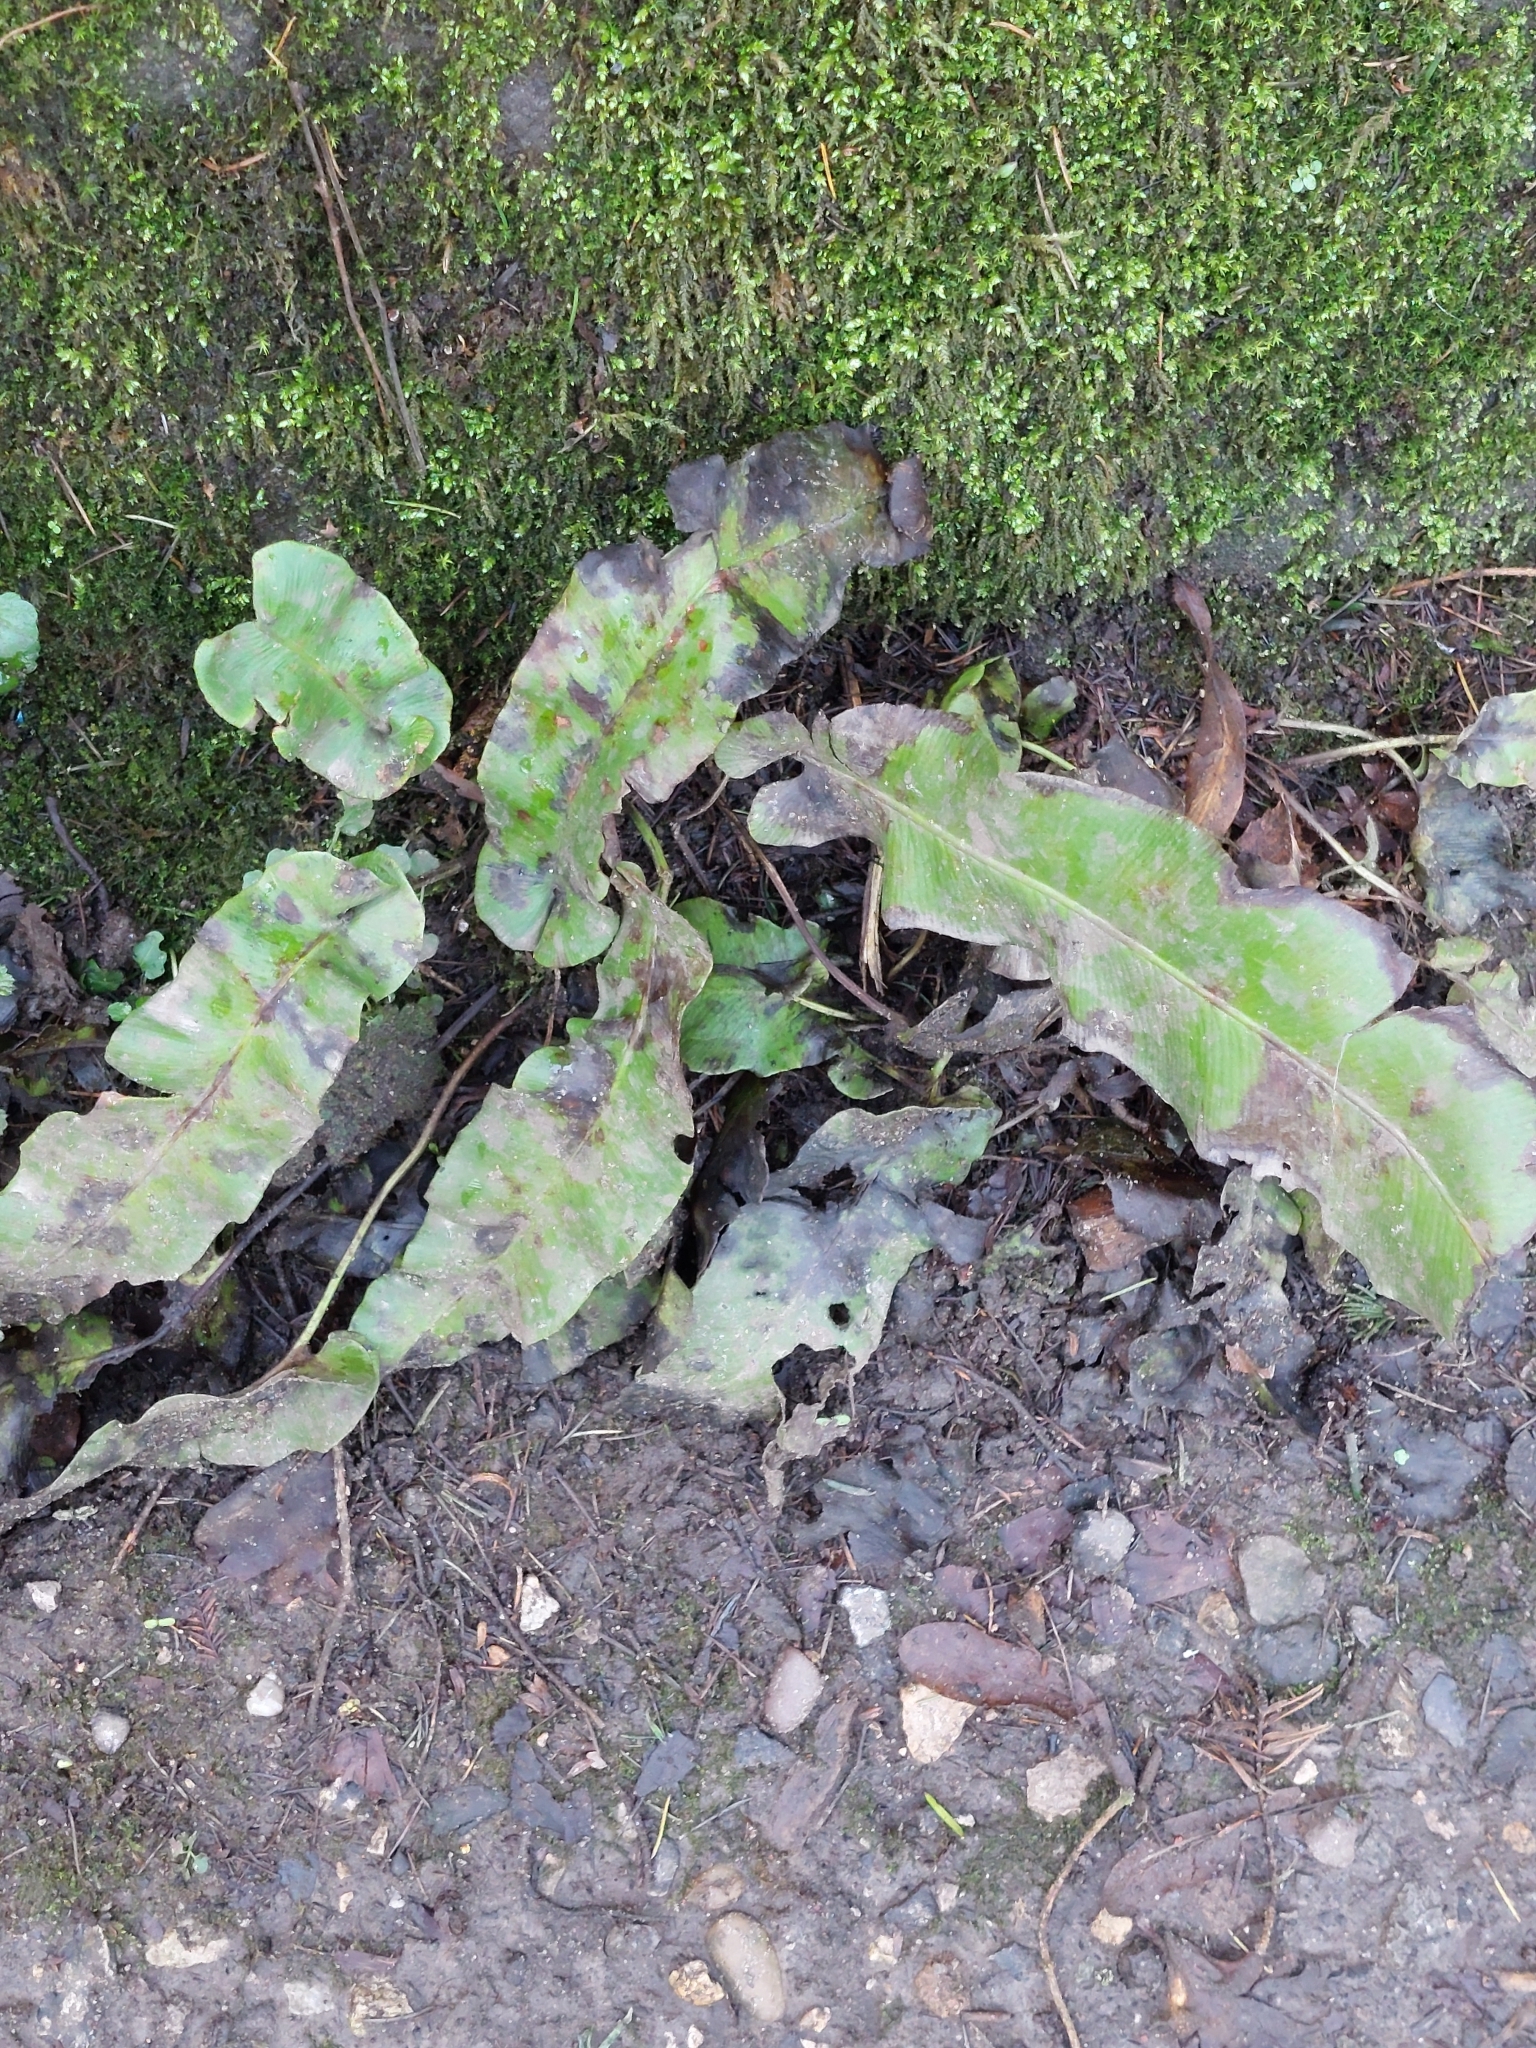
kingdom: Plantae
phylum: Tracheophyta
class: Polypodiopsida
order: Polypodiales
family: Aspleniaceae
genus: Asplenium
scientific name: Asplenium scolopendrium
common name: Hart's-tongue fern
